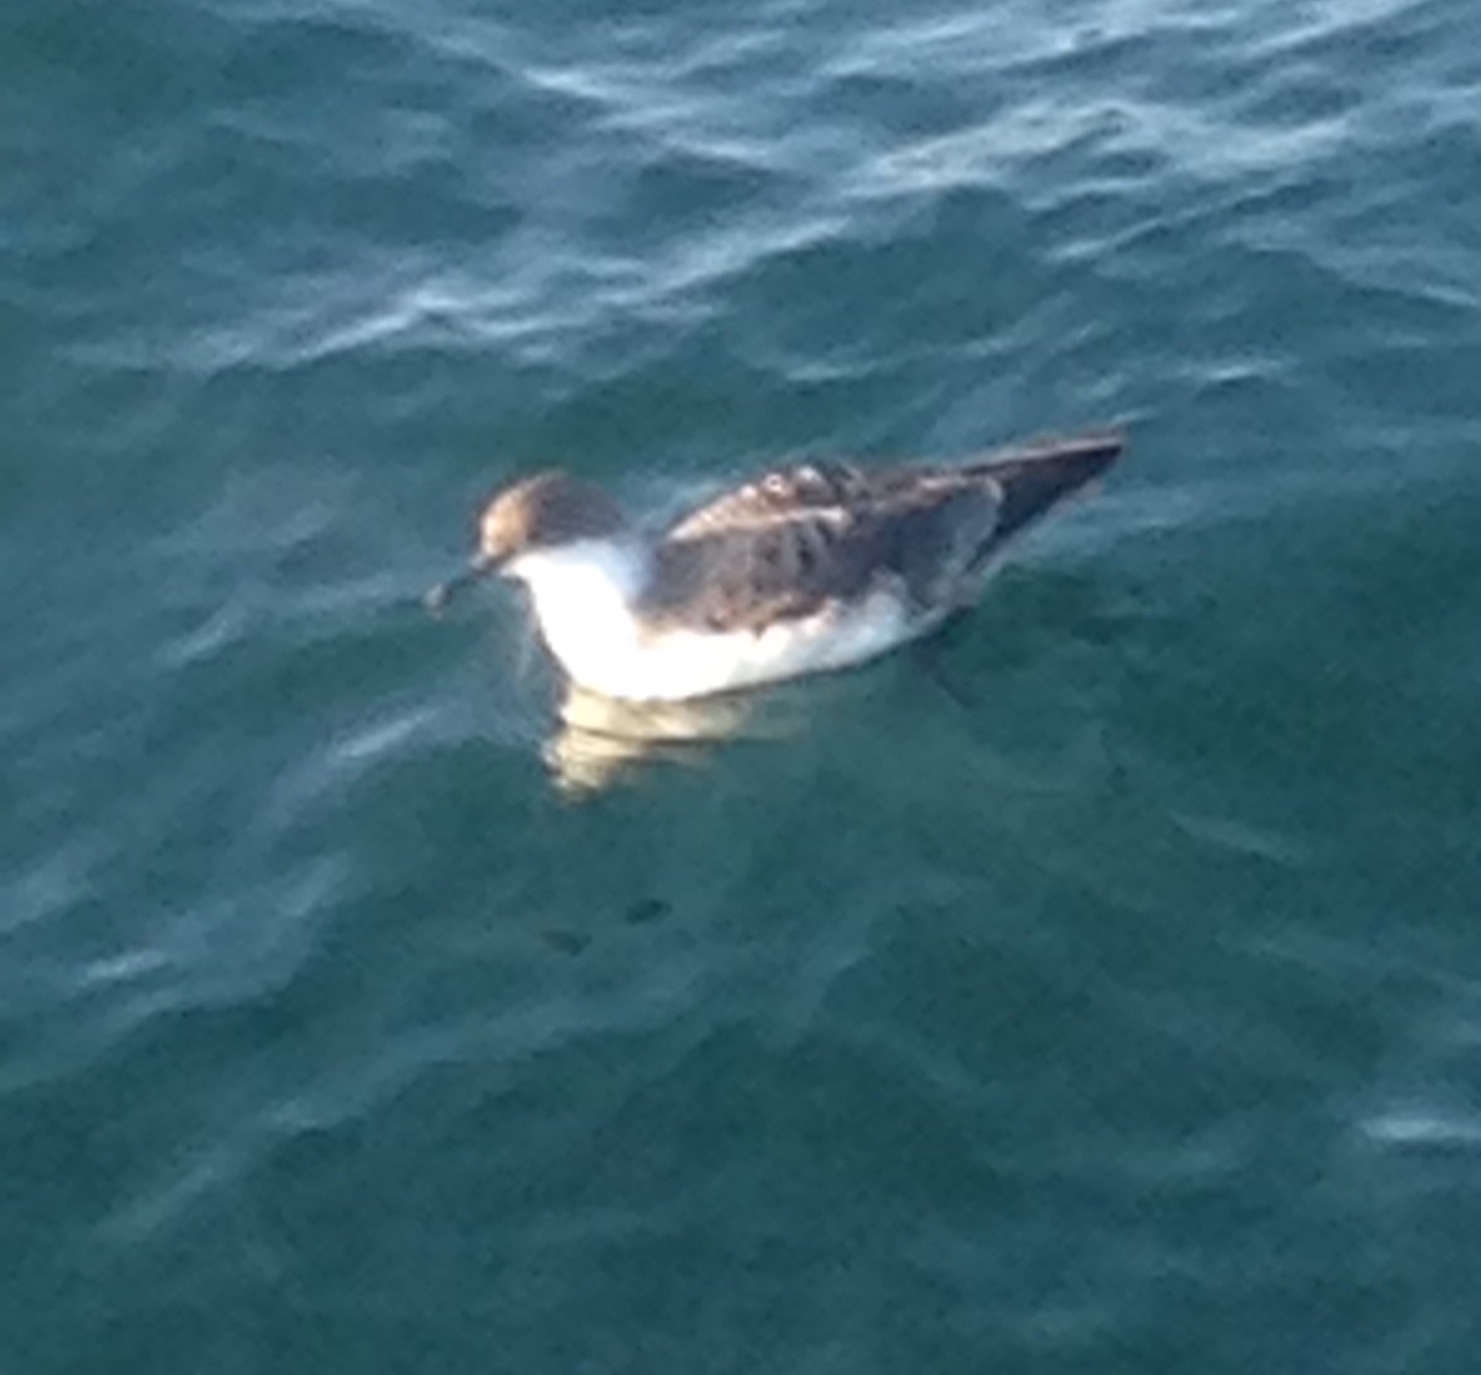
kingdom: Animalia
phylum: Chordata
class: Aves
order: Procellariiformes
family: Procellariidae
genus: Puffinus
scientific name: Puffinus gravis
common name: Great shearwater
